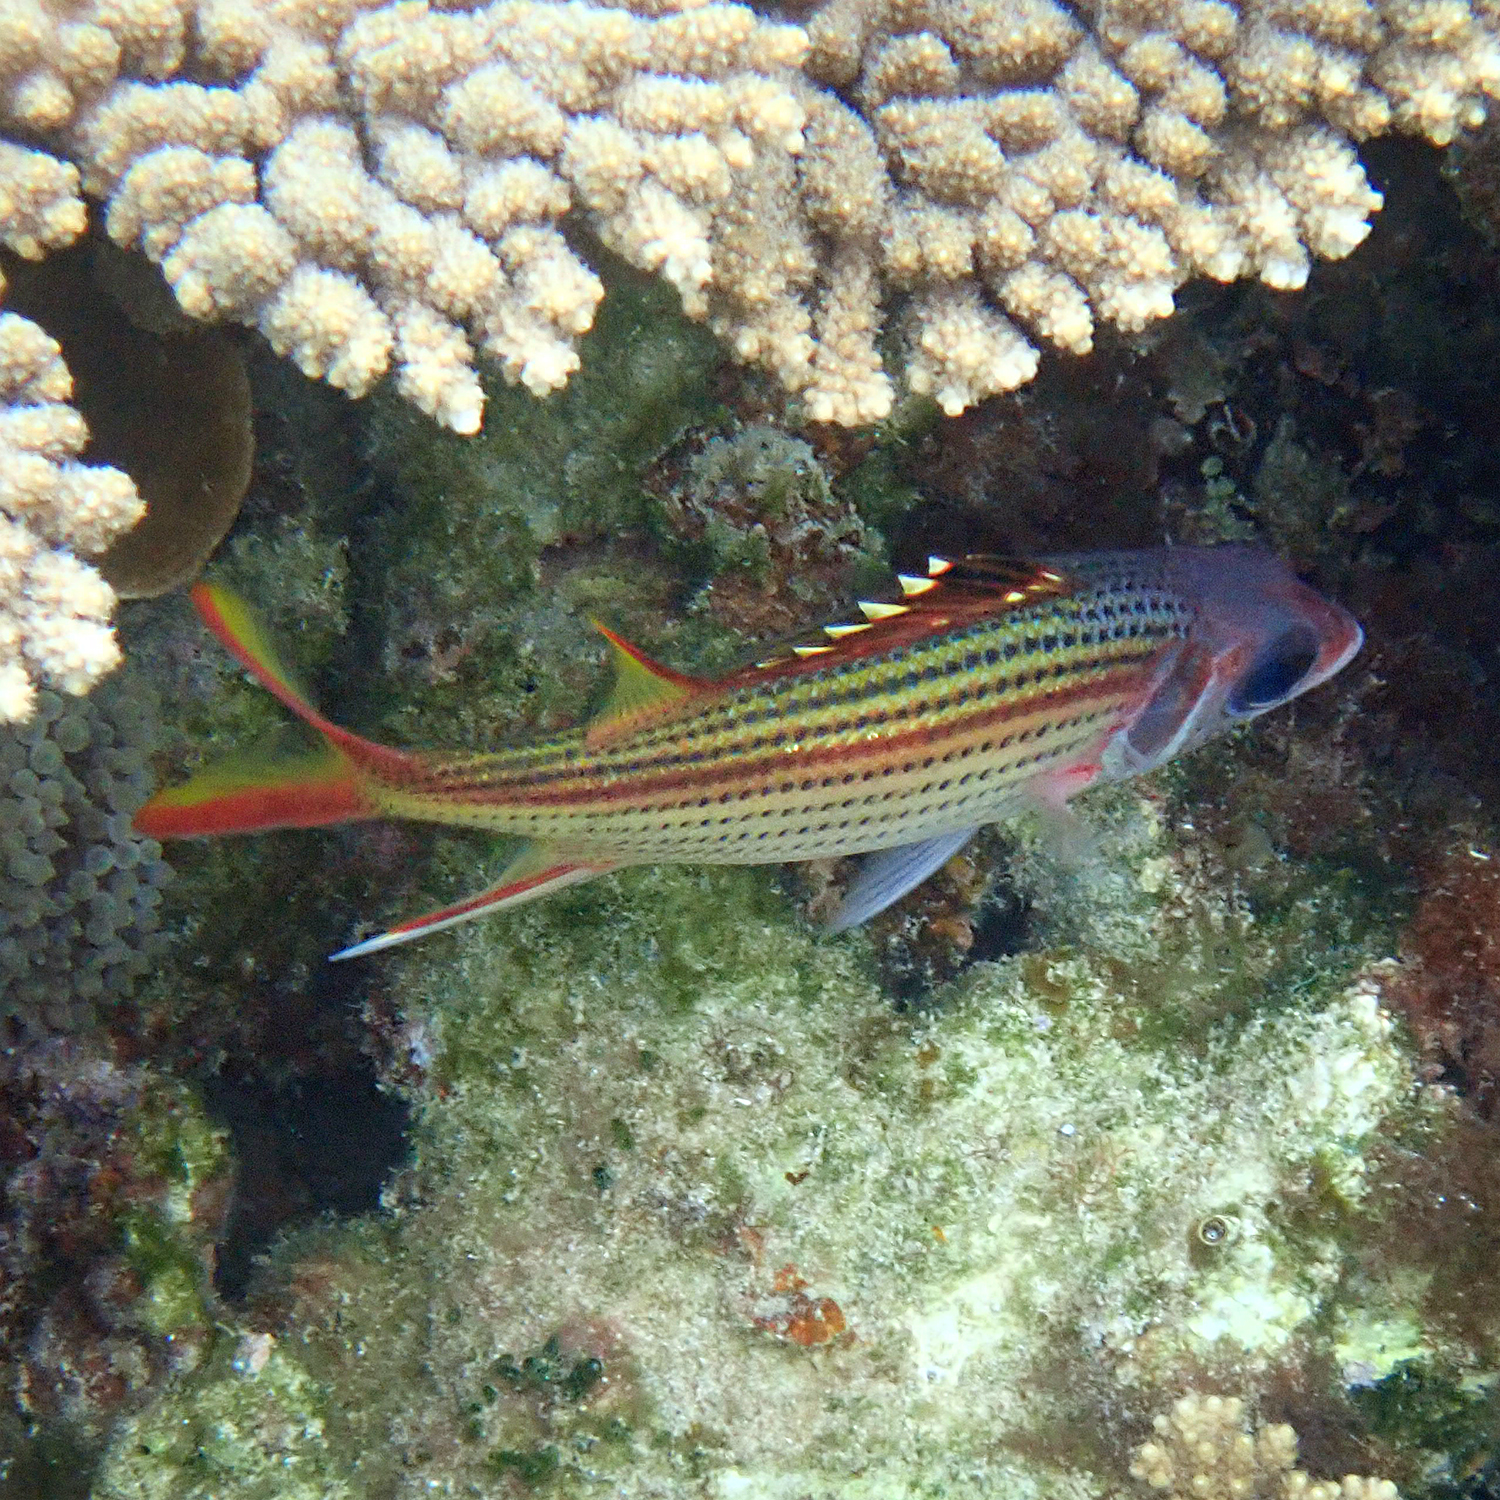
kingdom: Animalia
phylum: Chordata
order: Beryciformes
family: Holocentridae
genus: Neoniphon
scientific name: Neoniphon sammara
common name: Sammara squirrelfish
